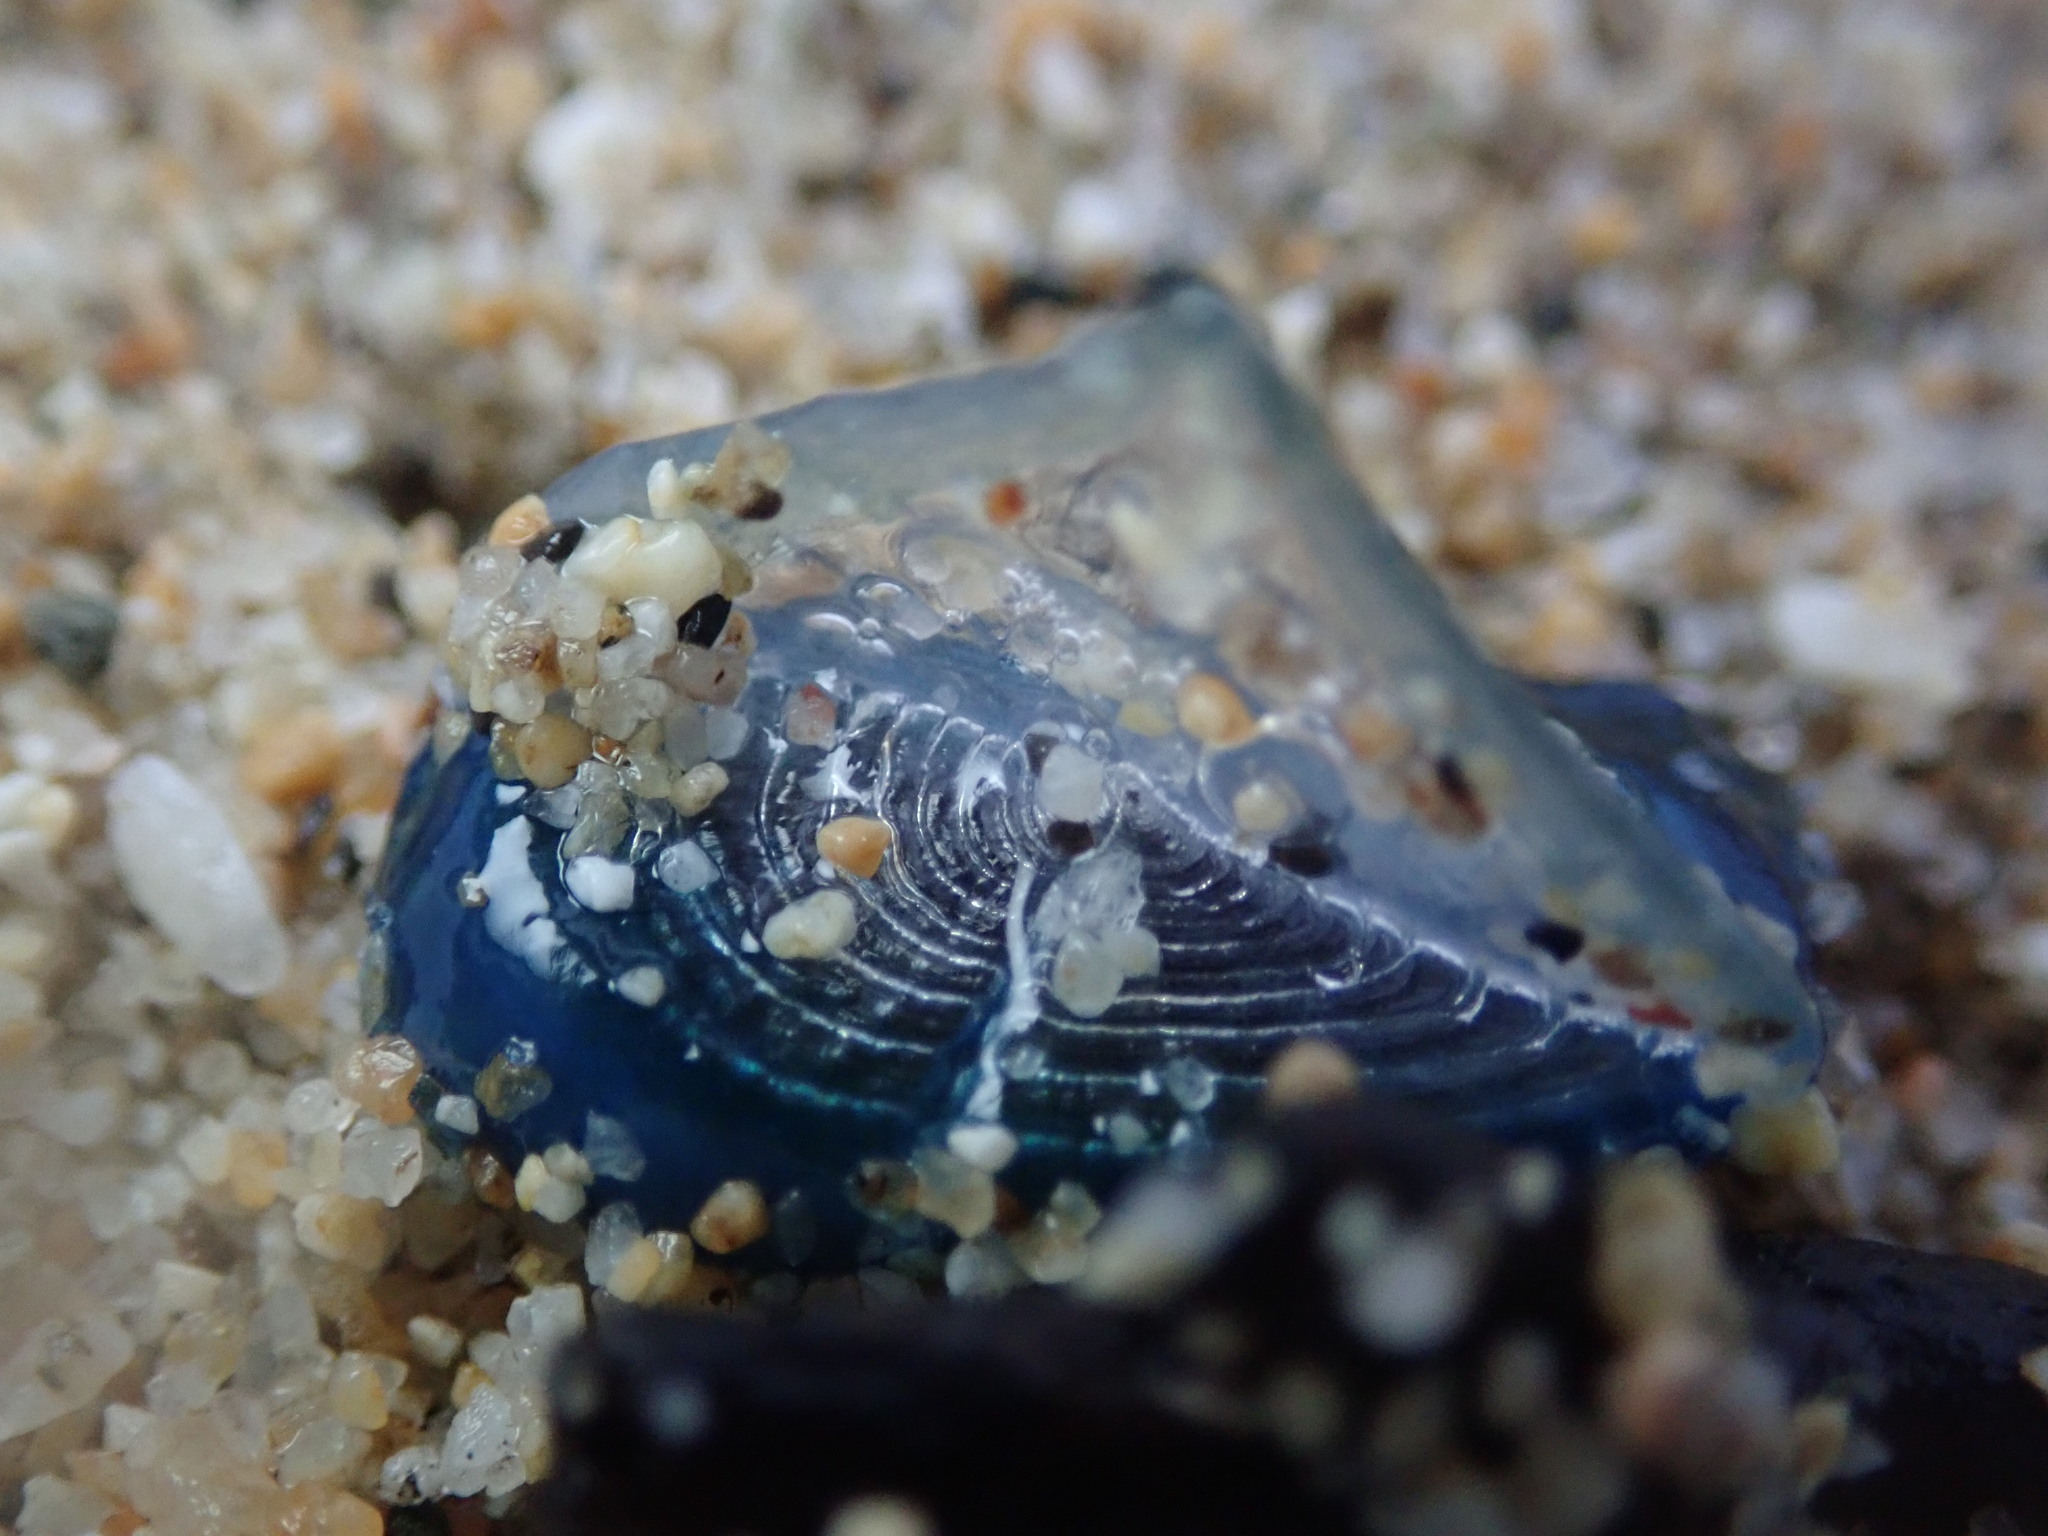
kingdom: Animalia
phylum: Cnidaria
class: Hydrozoa
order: Anthoathecata
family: Porpitidae
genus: Velella
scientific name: Velella velella
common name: By-the-wind-sailor
